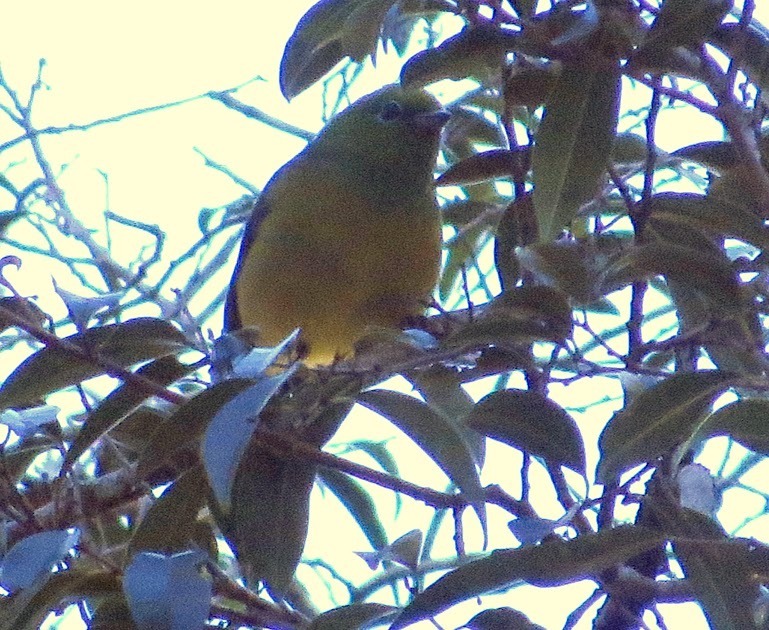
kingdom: Animalia
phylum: Chordata
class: Aves
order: Passeriformes
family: Fringillidae
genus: Chlorophonia
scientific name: Chlorophonia cyanea
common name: Blue-naped chlorophonia
